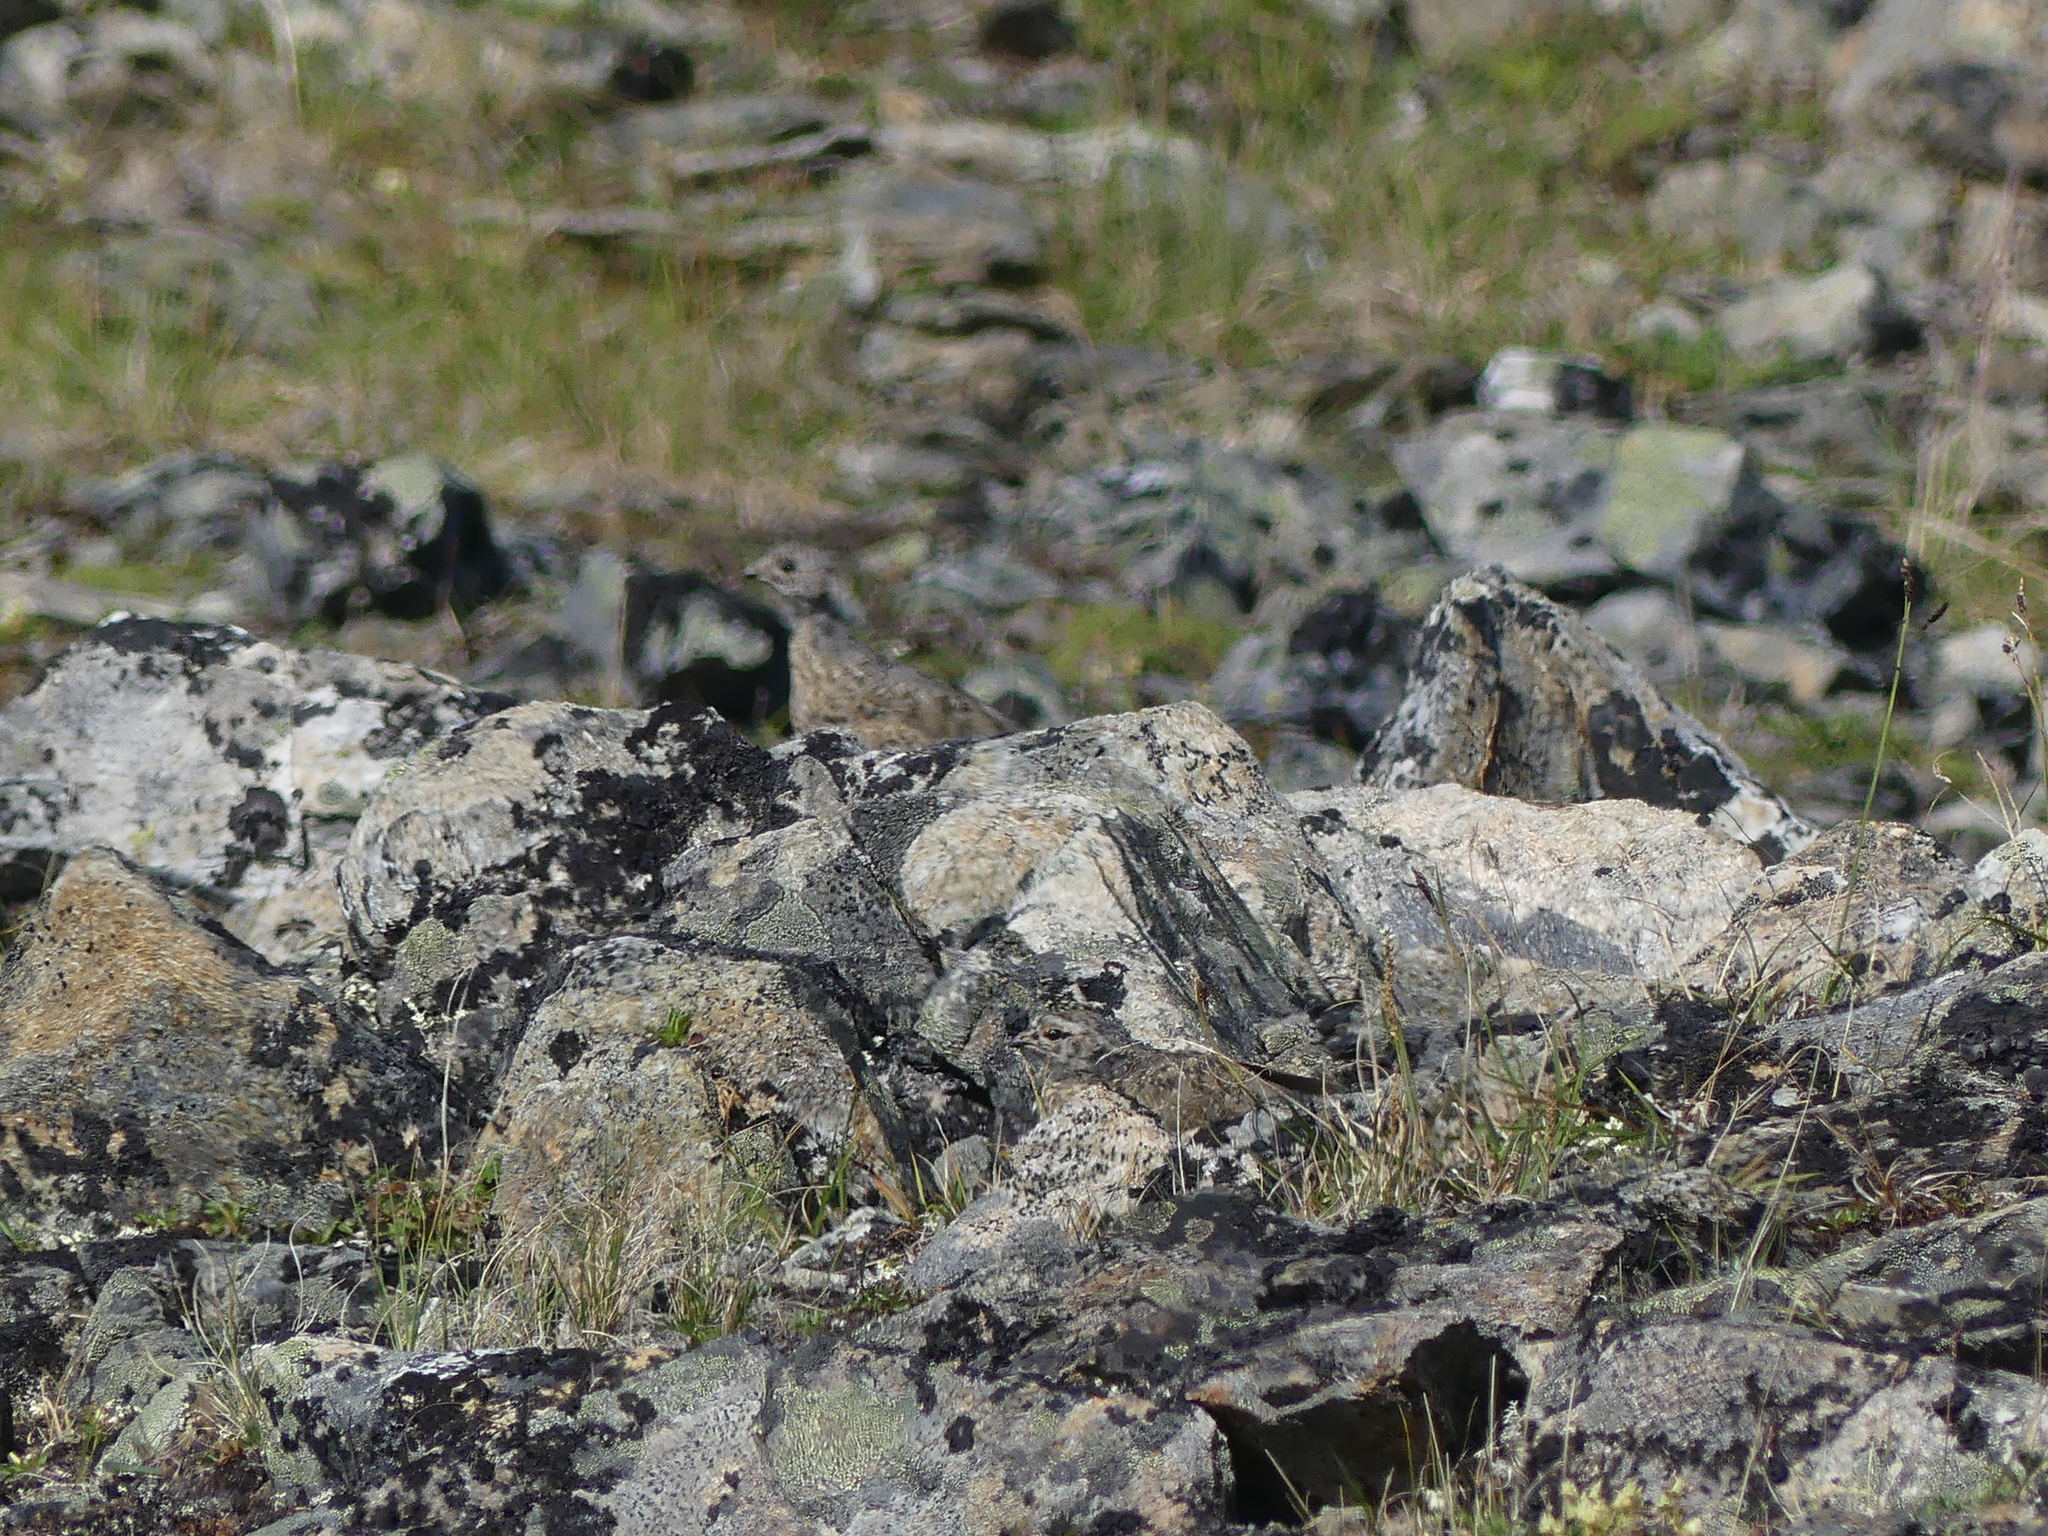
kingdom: Animalia
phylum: Chordata
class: Aves
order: Galliformes
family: Phasianidae
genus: Lagopus
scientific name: Lagopus leucura
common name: White-tailed ptarmigan
